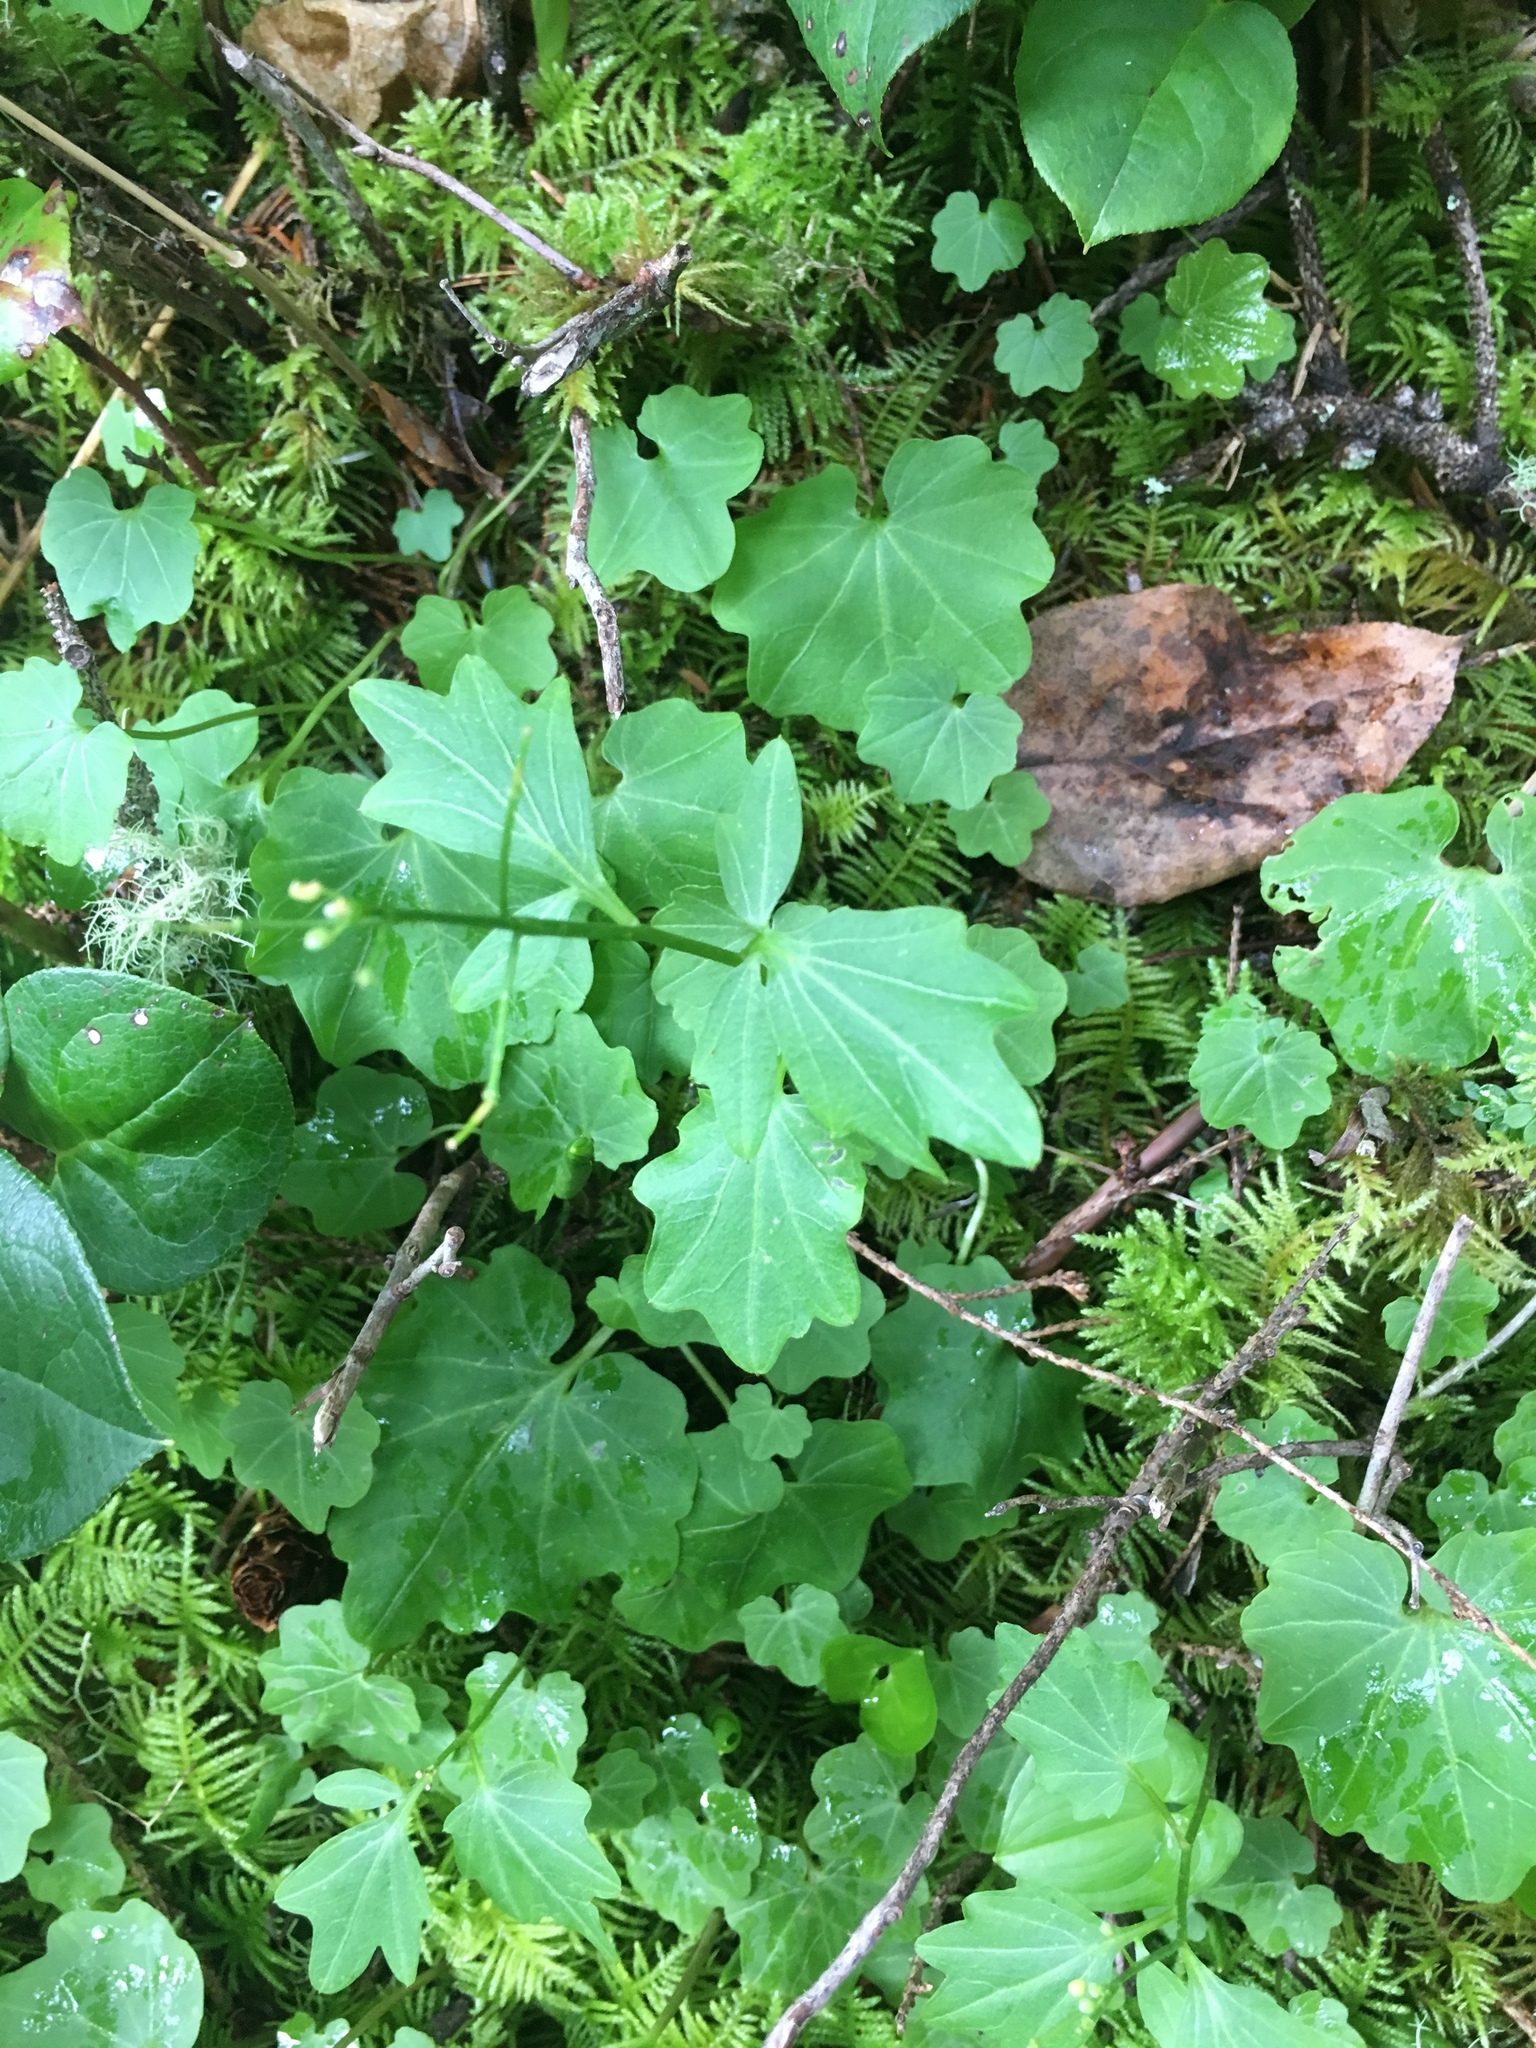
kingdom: Plantae
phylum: Tracheophyta
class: Magnoliopsida
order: Brassicales
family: Brassicaceae
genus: Cardamine
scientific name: Cardamine californica
